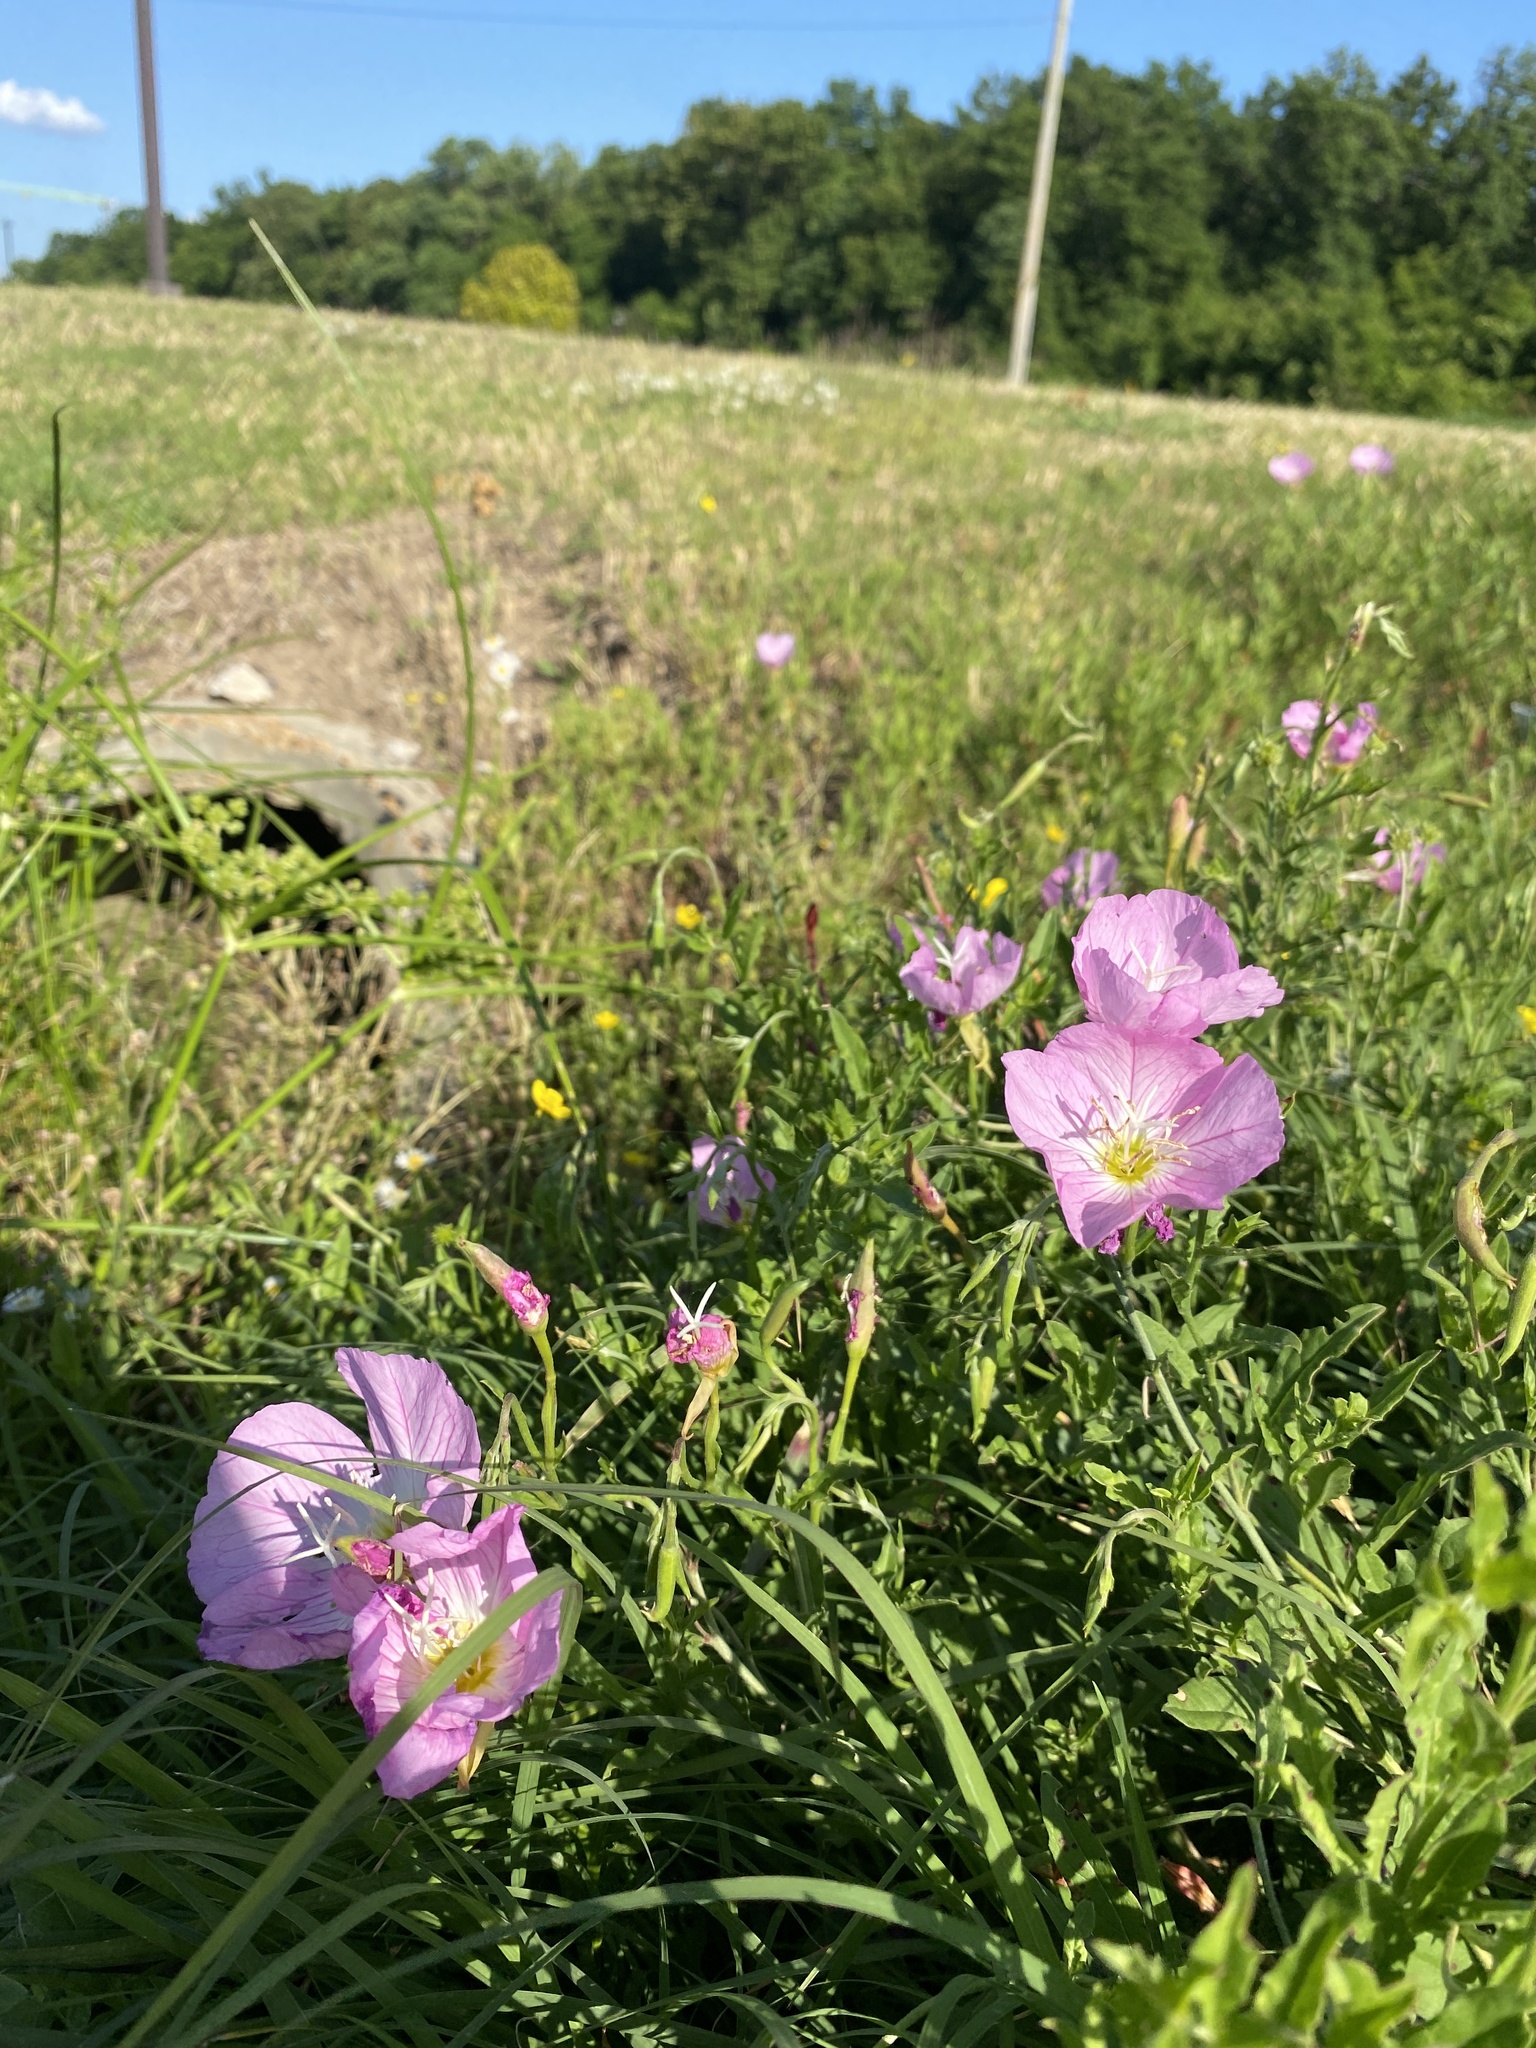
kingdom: Plantae
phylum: Tracheophyta
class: Magnoliopsida
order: Myrtales
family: Onagraceae
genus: Oenothera
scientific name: Oenothera speciosa
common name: White evening-primrose
